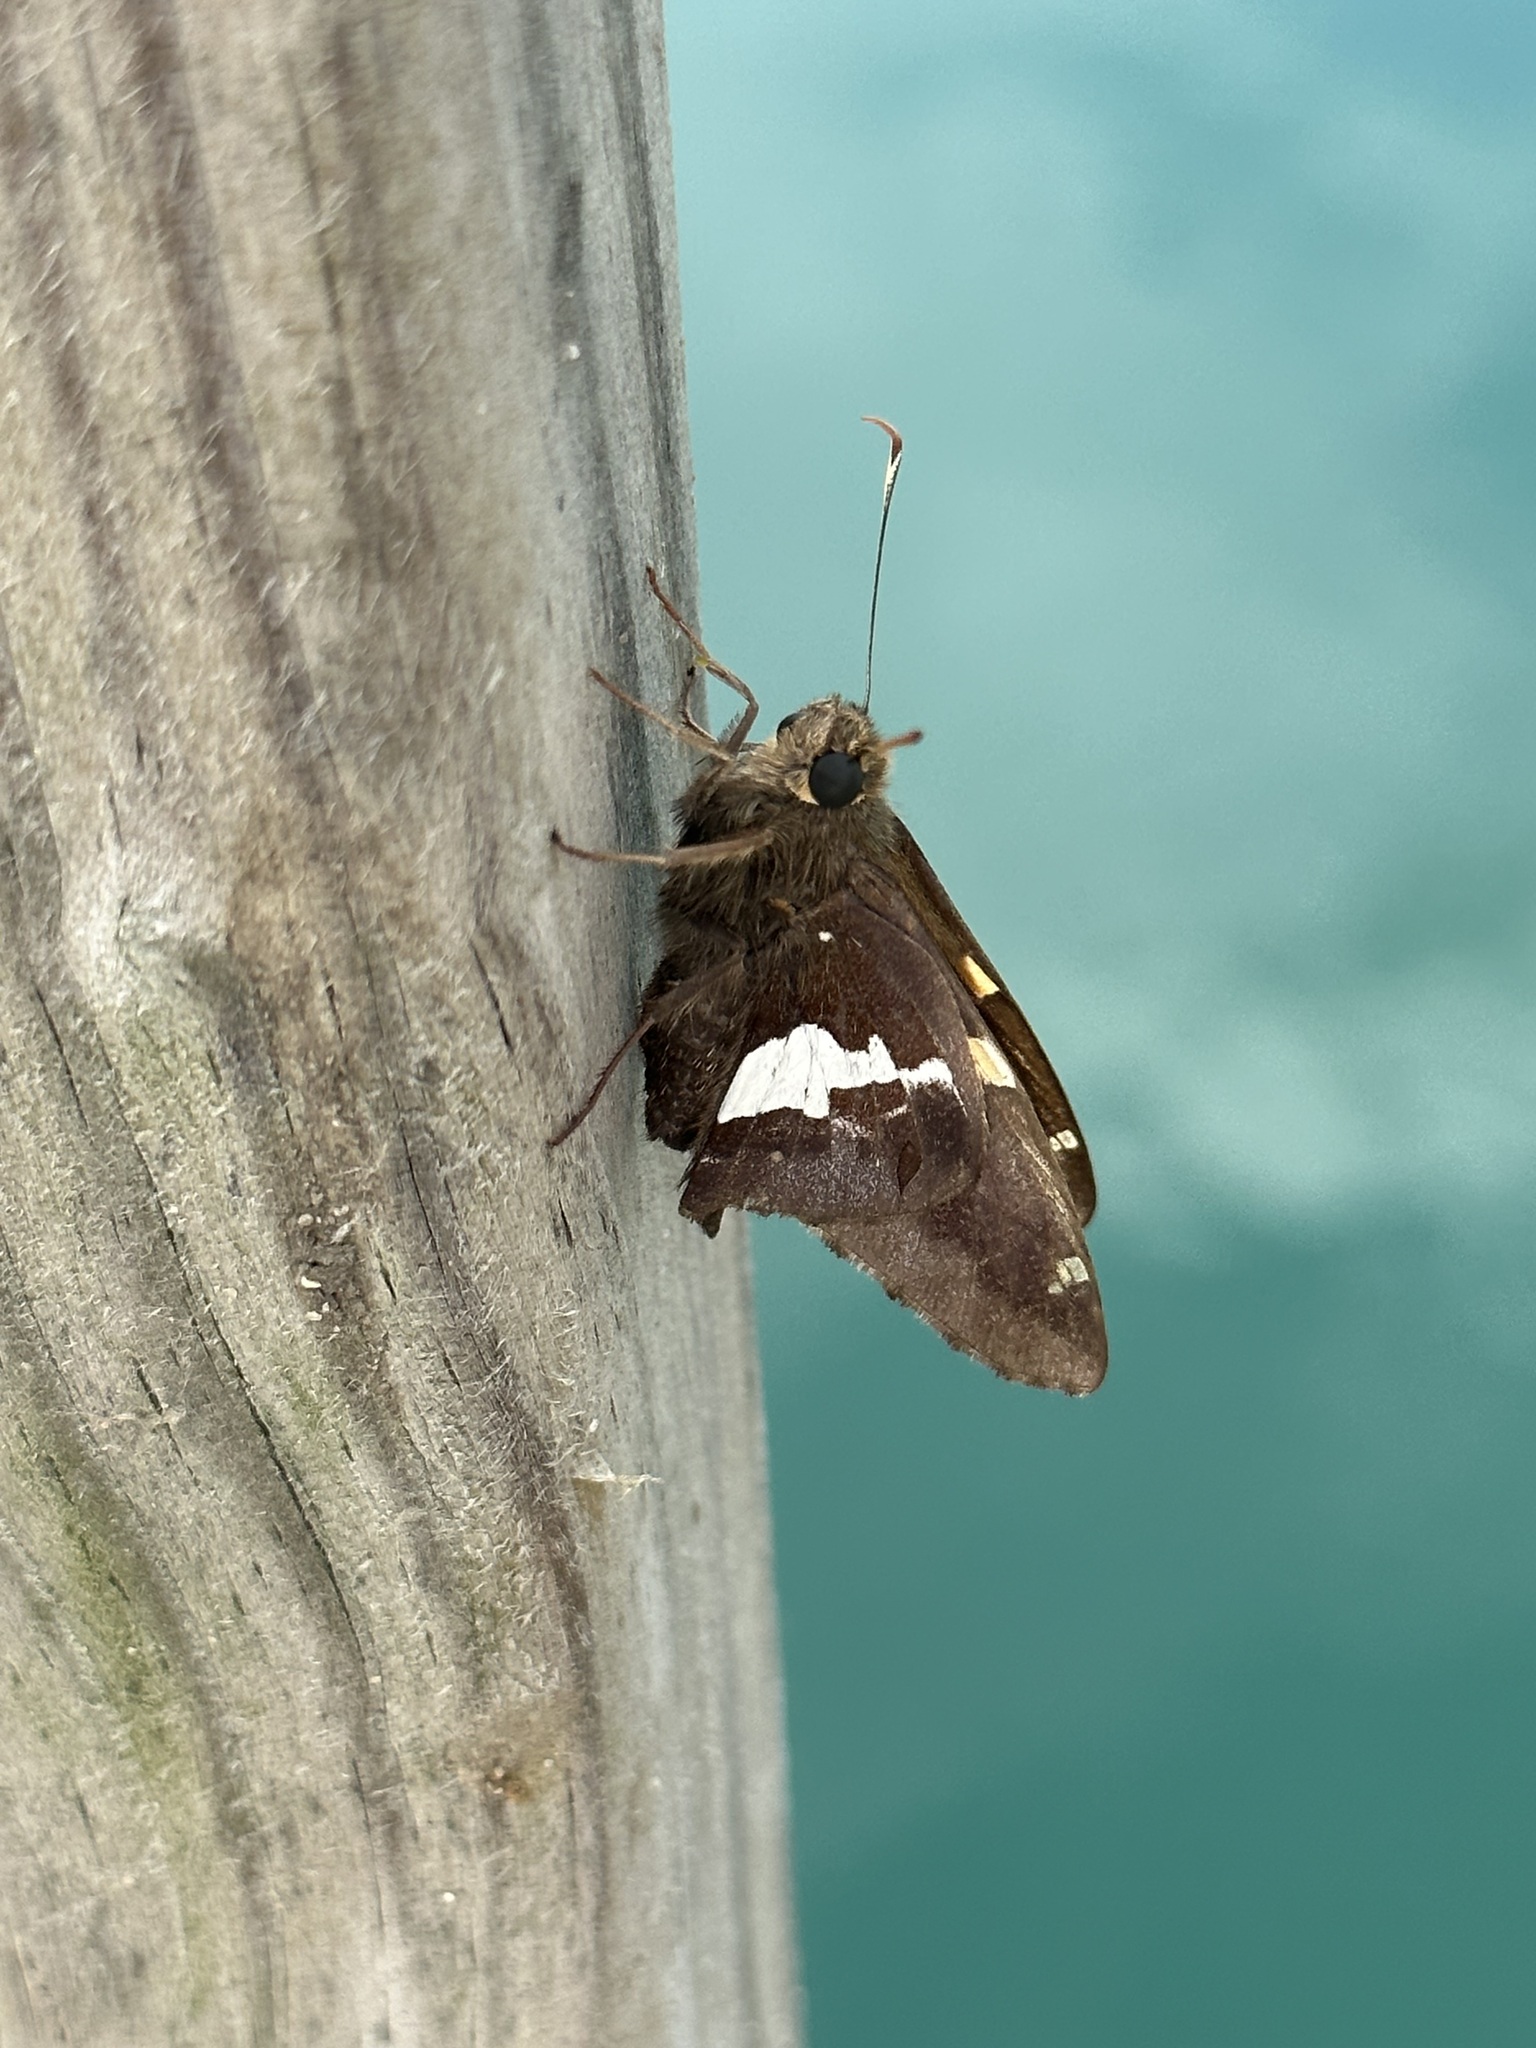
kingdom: Animalia
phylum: Arthropoda
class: Insecta
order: Lepidoptera
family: Hesperiidae
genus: Epargyreus
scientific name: Epargyreus clarus
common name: Silver-spotted skipper
